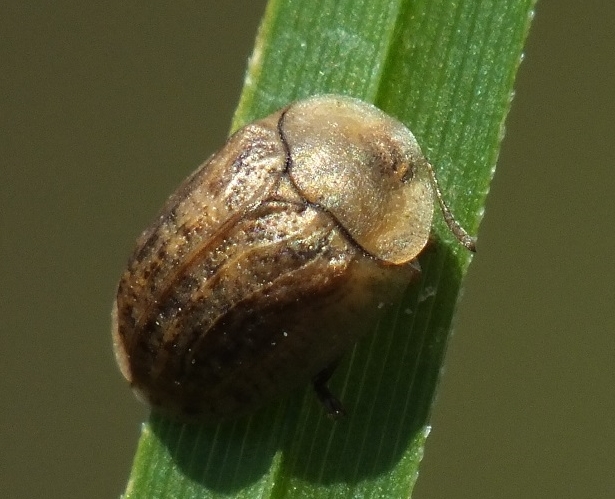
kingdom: Animalia
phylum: Arthropoda
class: Insecta
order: Coleoptera
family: Chrysomelidae
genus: Hypocassida
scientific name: Hypocassida subferruginea
